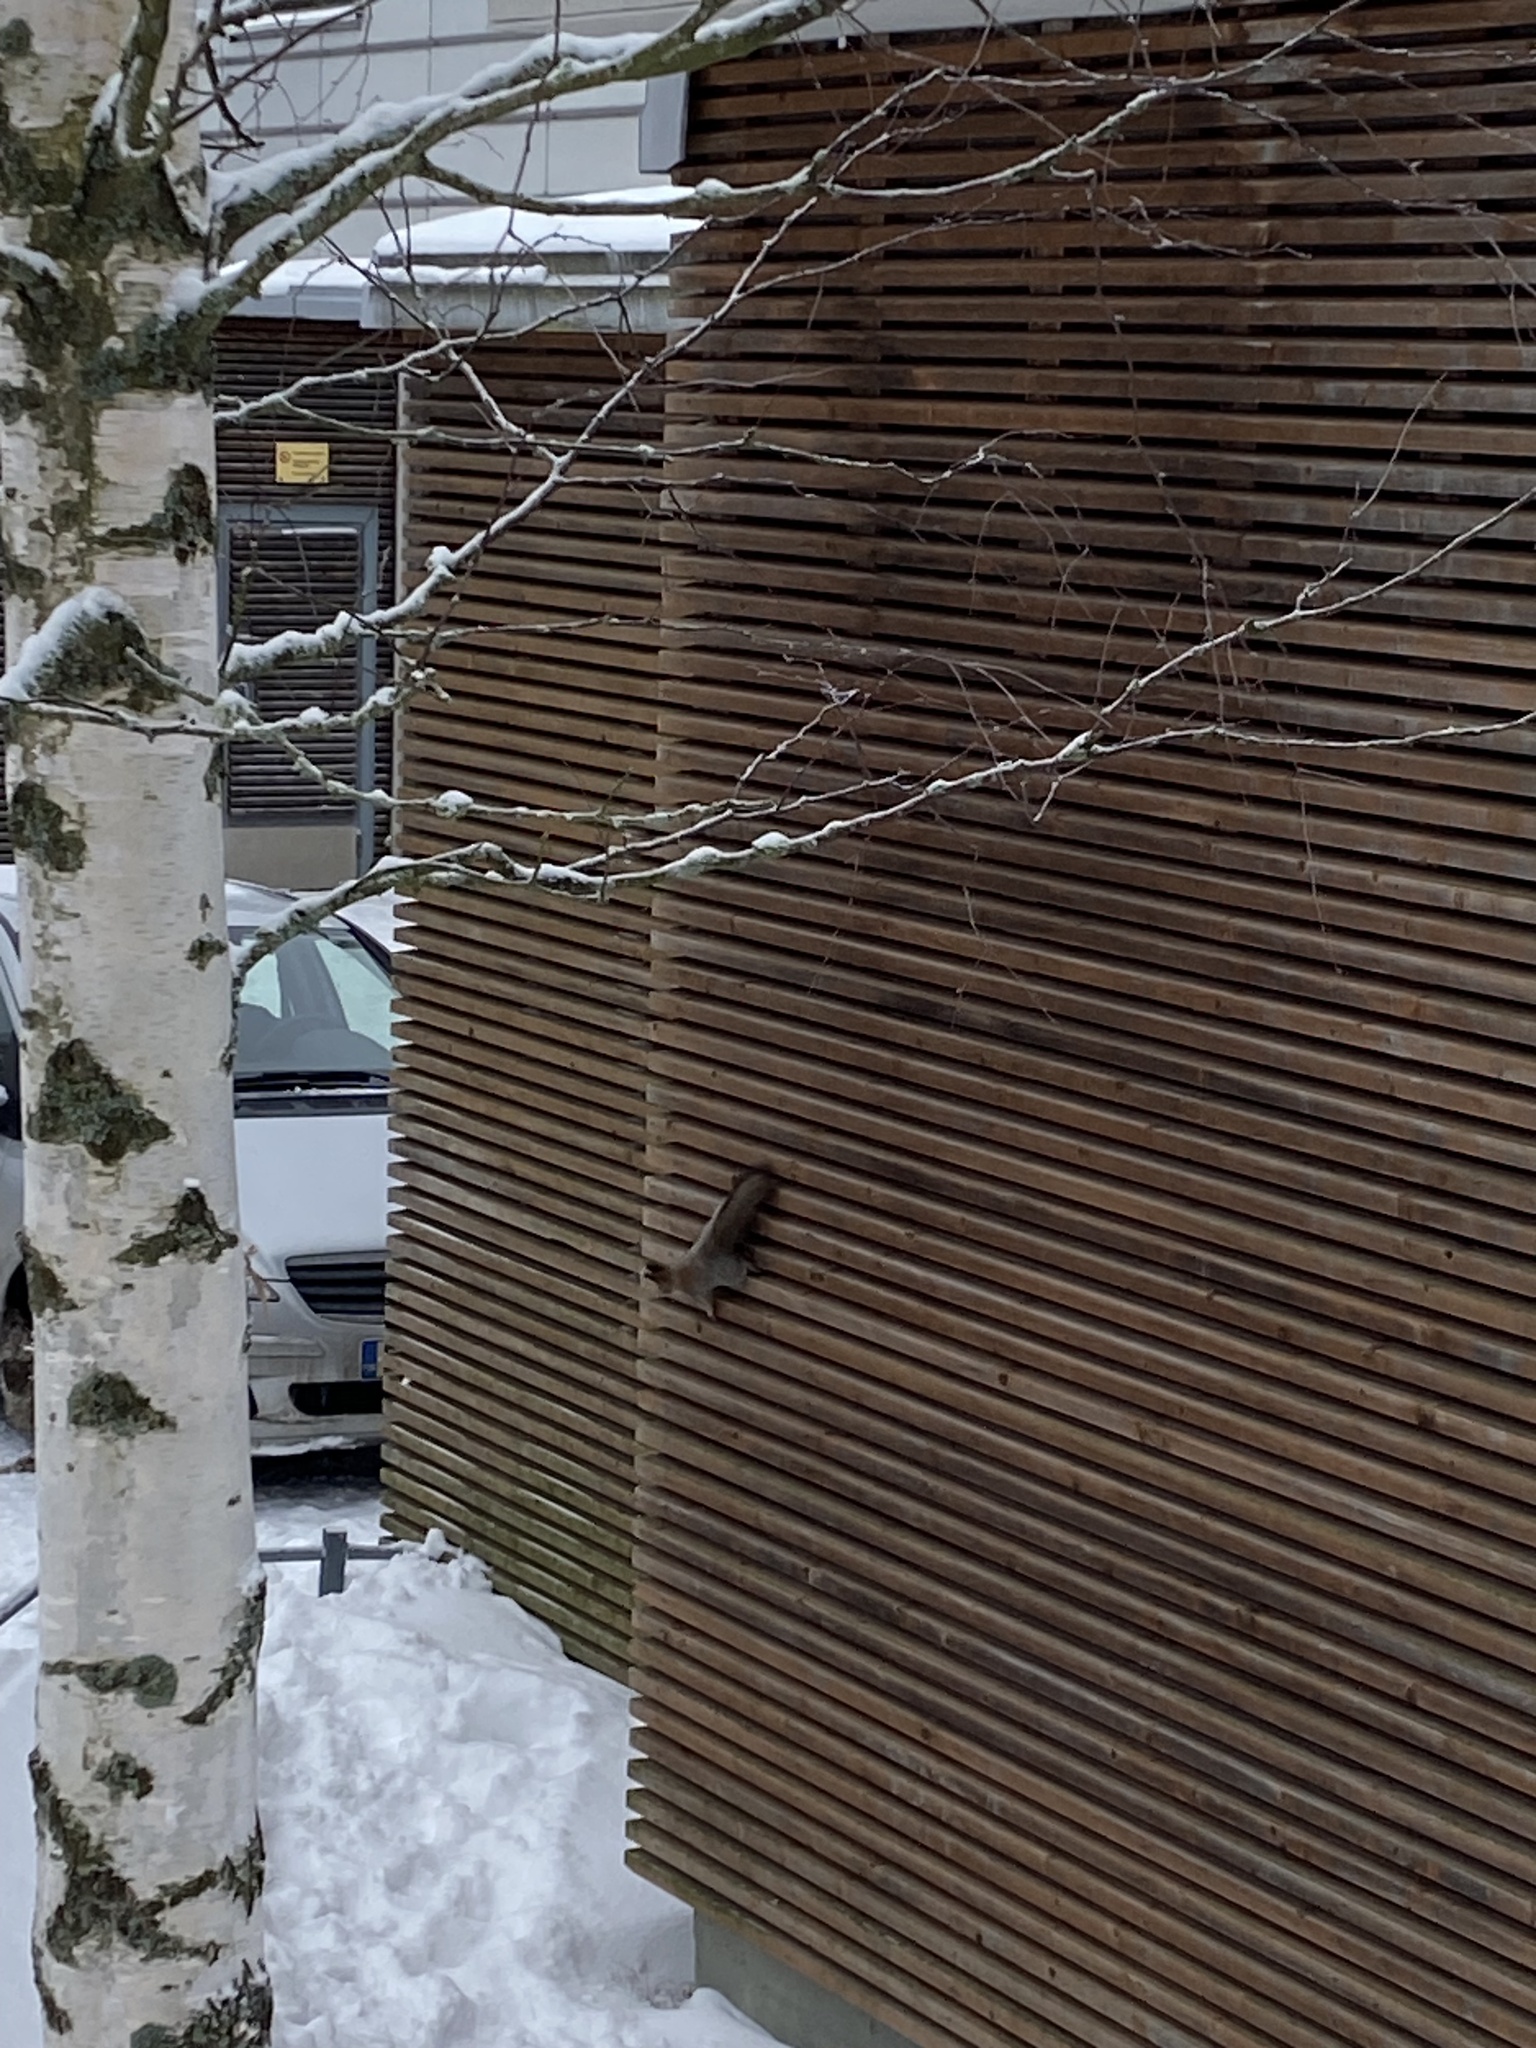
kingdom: Animalia
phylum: Chordata
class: Mammalia
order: Rodentia
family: Sciuridae
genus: Sciurus
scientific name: Sciurus vulgaris
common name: Eurasian red squirrel
